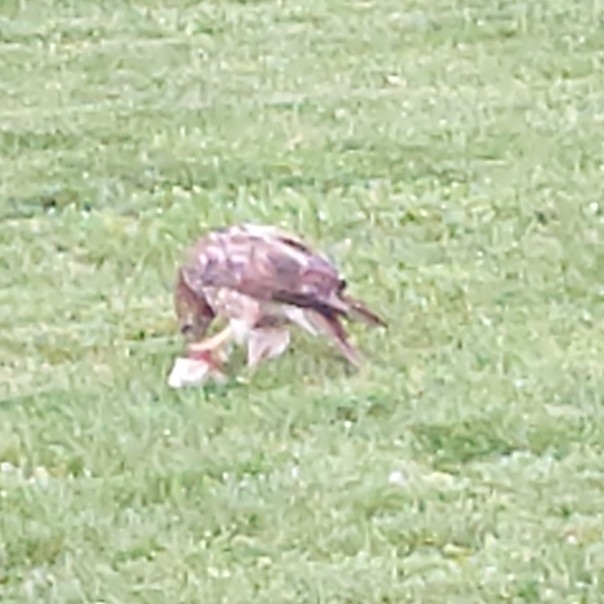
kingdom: Animalia
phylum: Chordata
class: Aves
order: Accipitriformes
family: Accipitridae
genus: Buteo
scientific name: Buteo jamaicensis
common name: Red-tailed hawk
